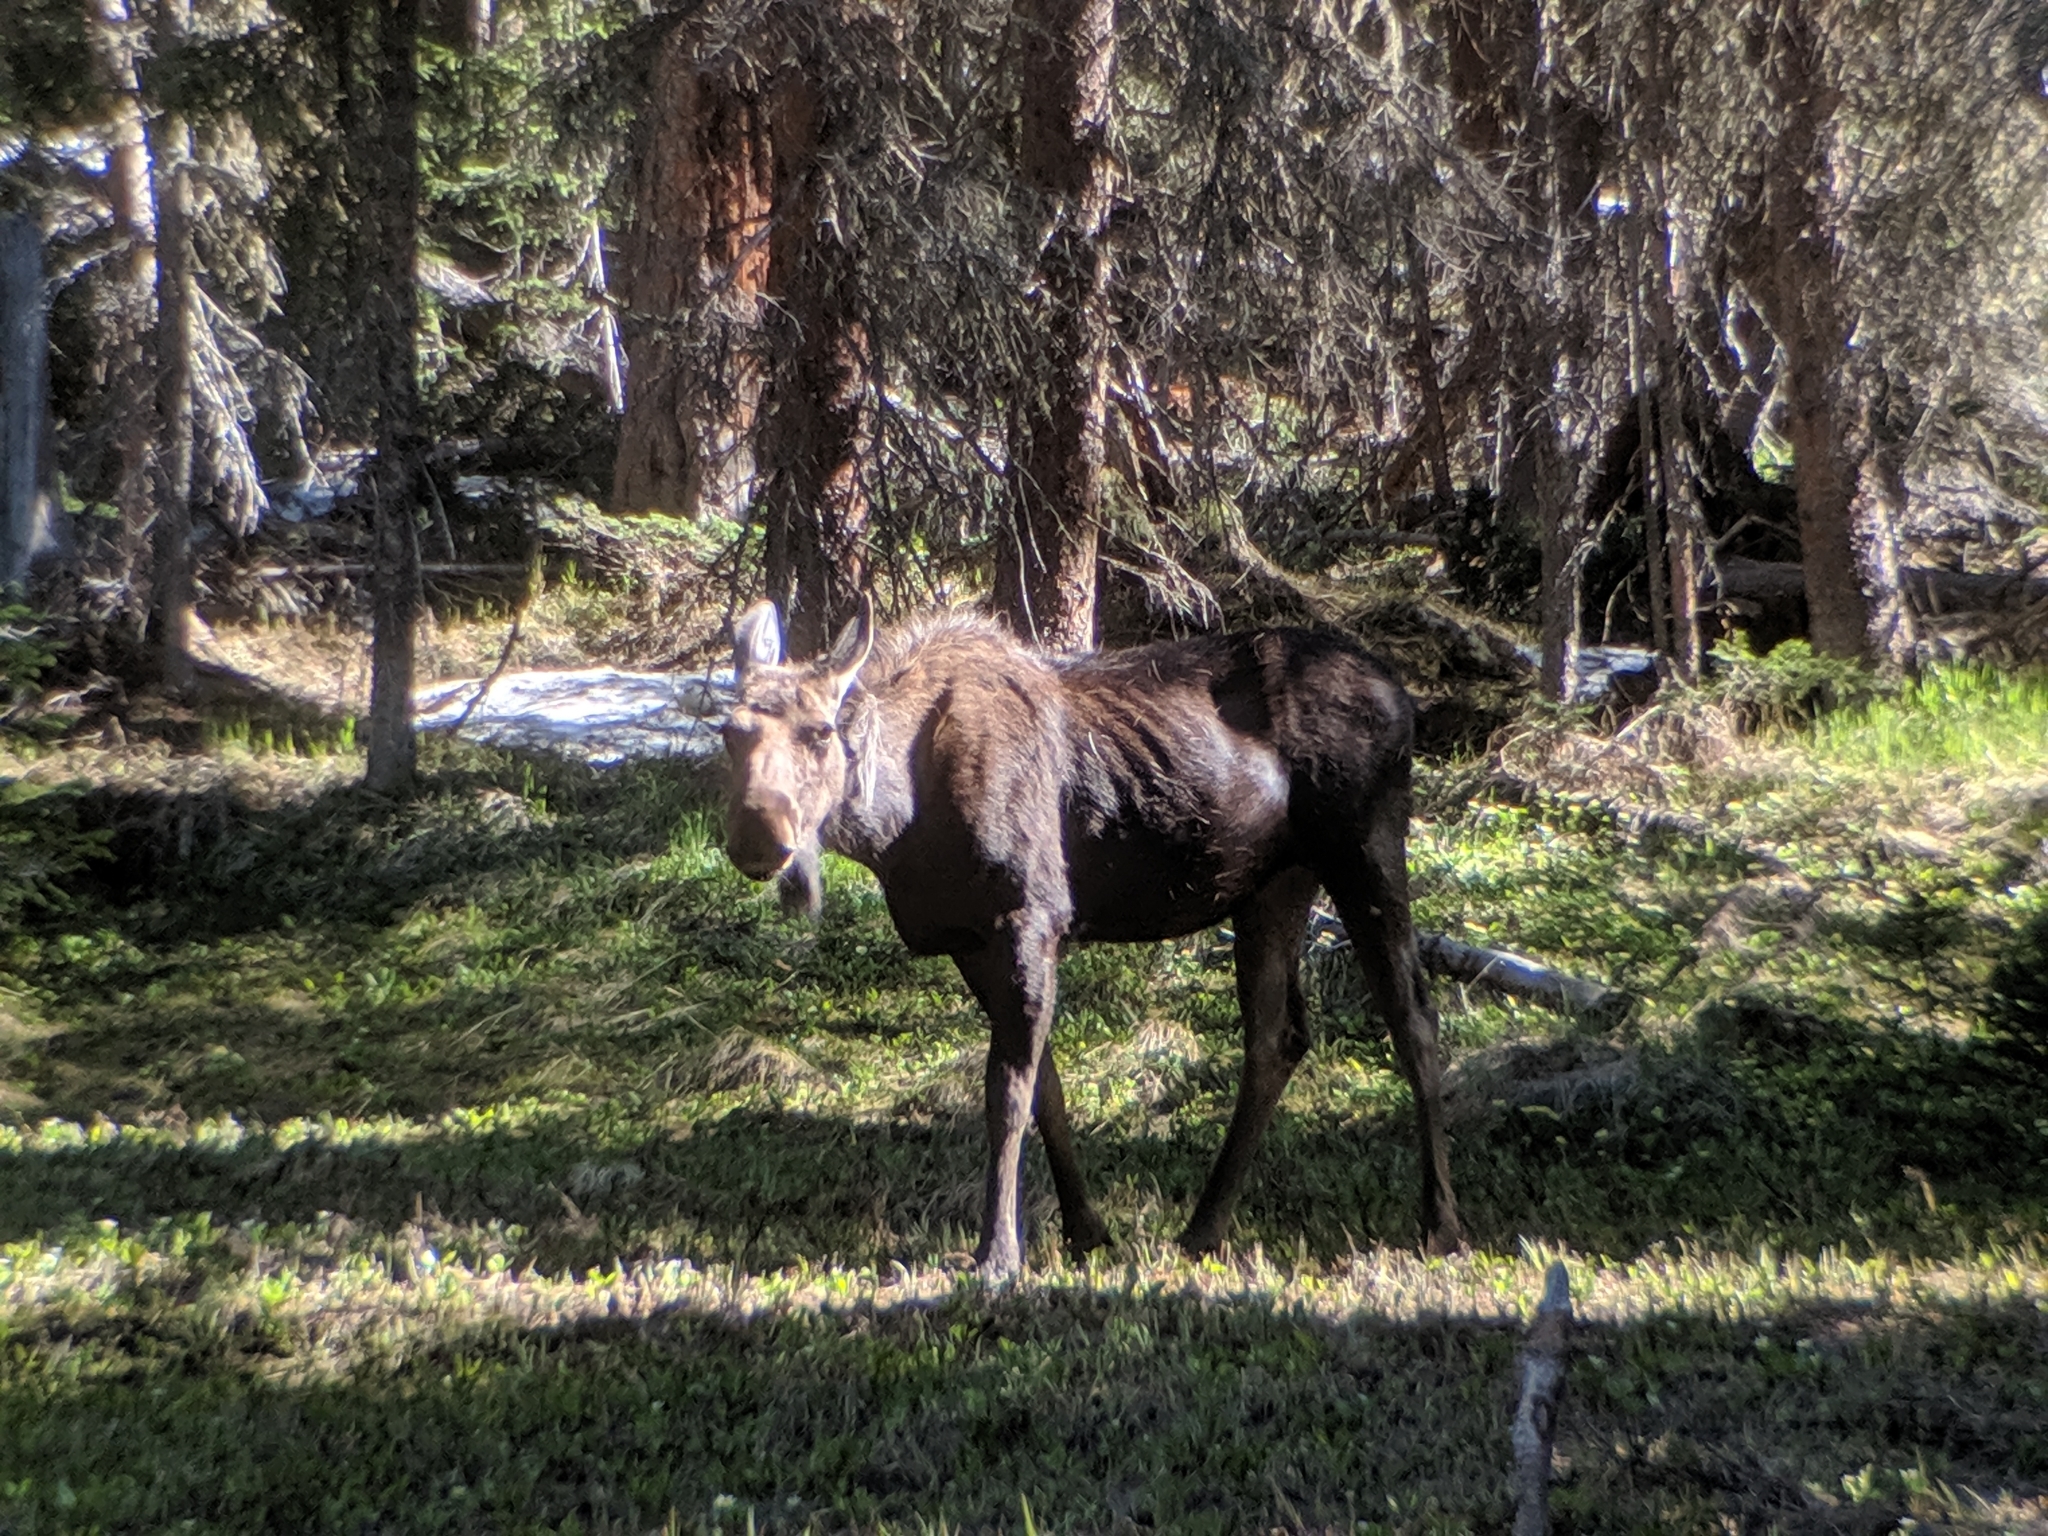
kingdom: Animalia
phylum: Chordata
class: Mammalia
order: Artiodactyla
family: Cervidae
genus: Alces
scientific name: Alces alces
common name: Moose
